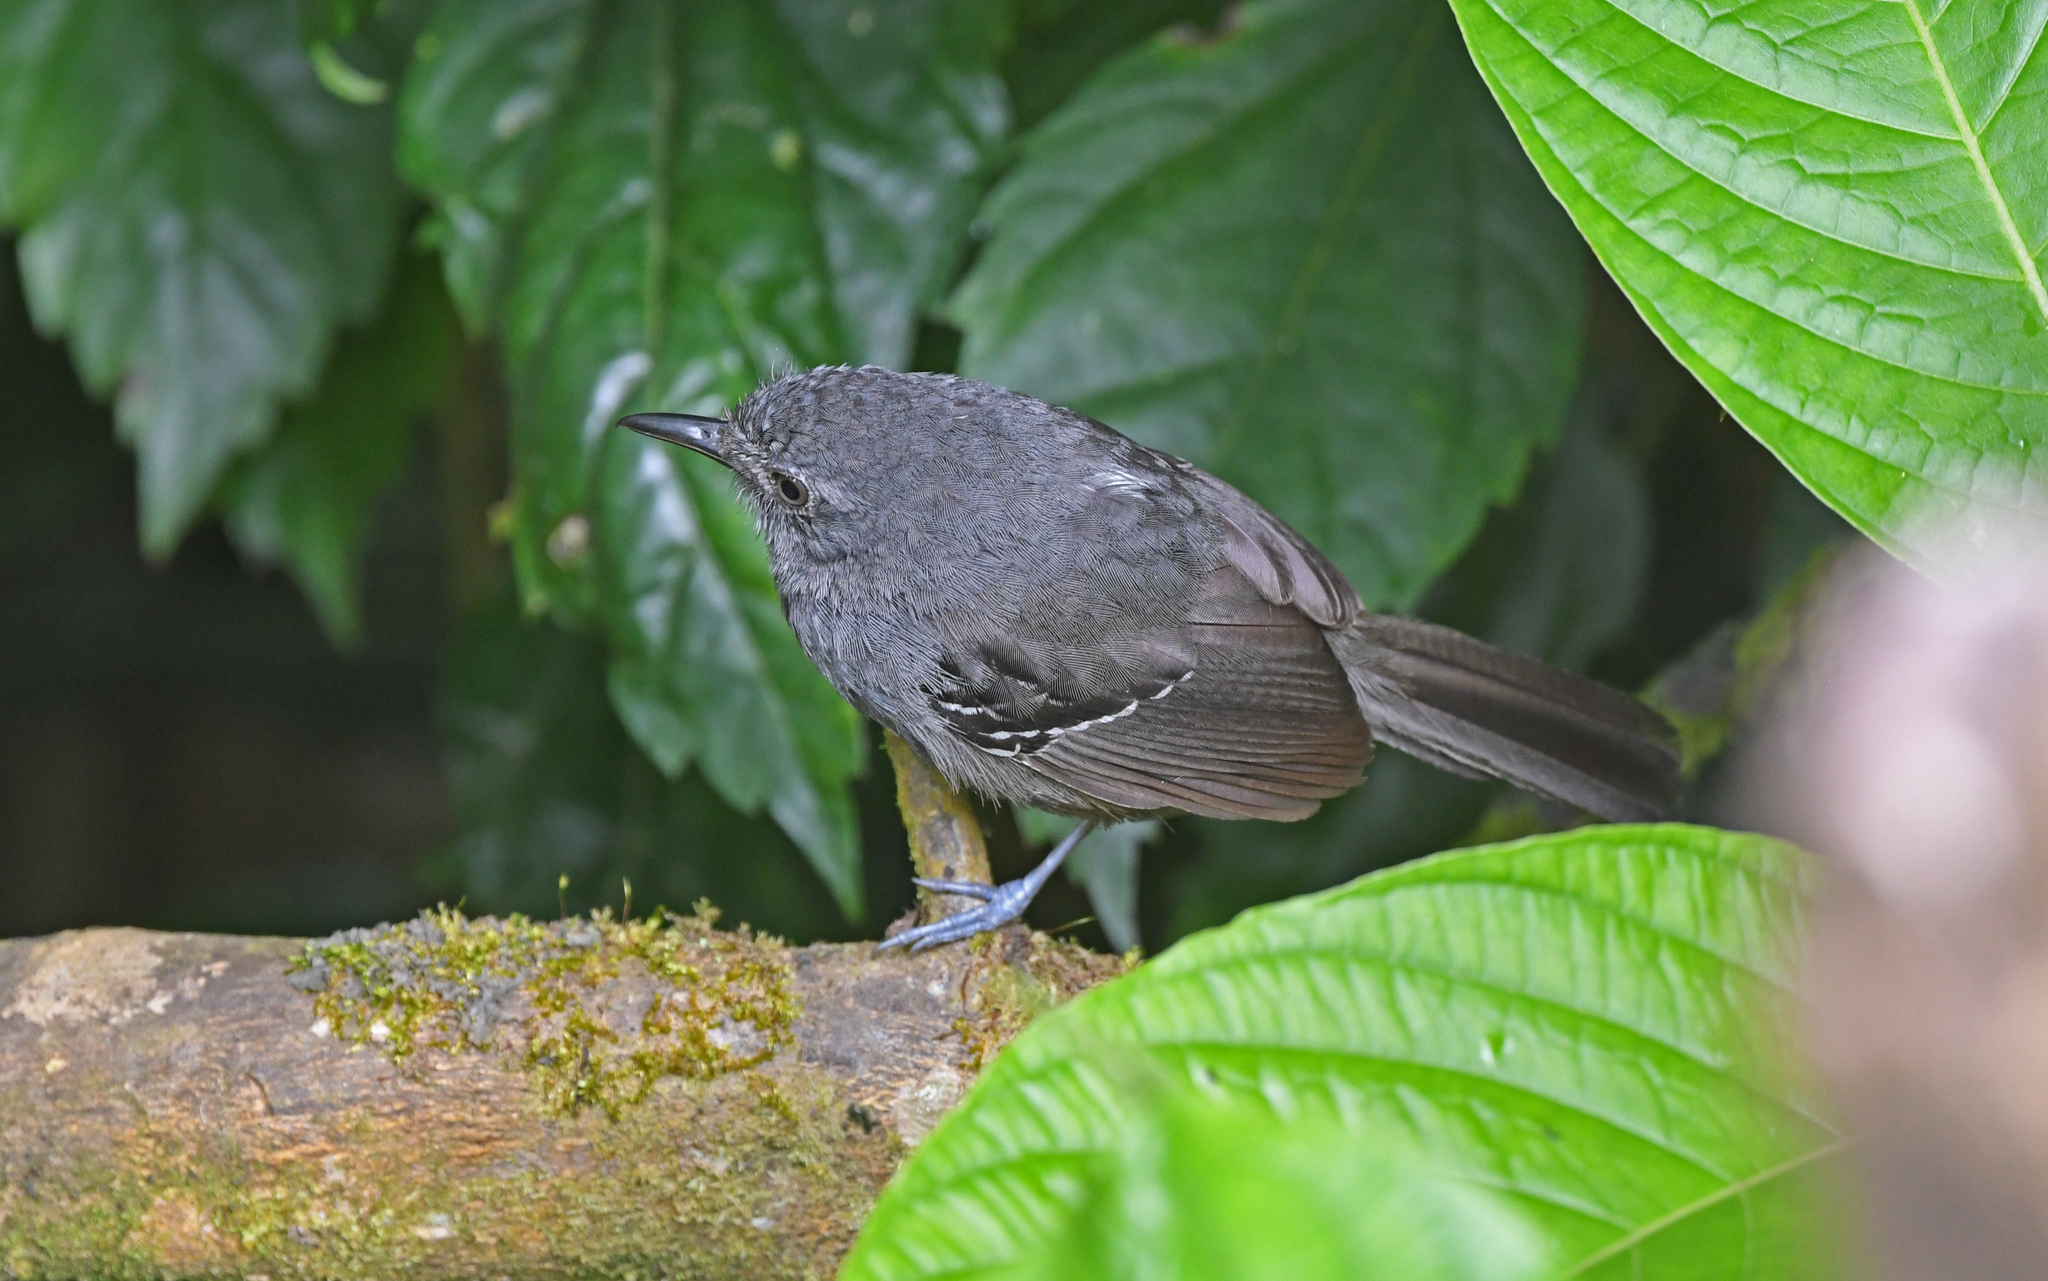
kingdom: Animalia
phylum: Chordata
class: Aves
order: Passeriformes
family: Thamnophilidae
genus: Cercomacra
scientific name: Cercomacra parkeri
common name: Parker's antbird
